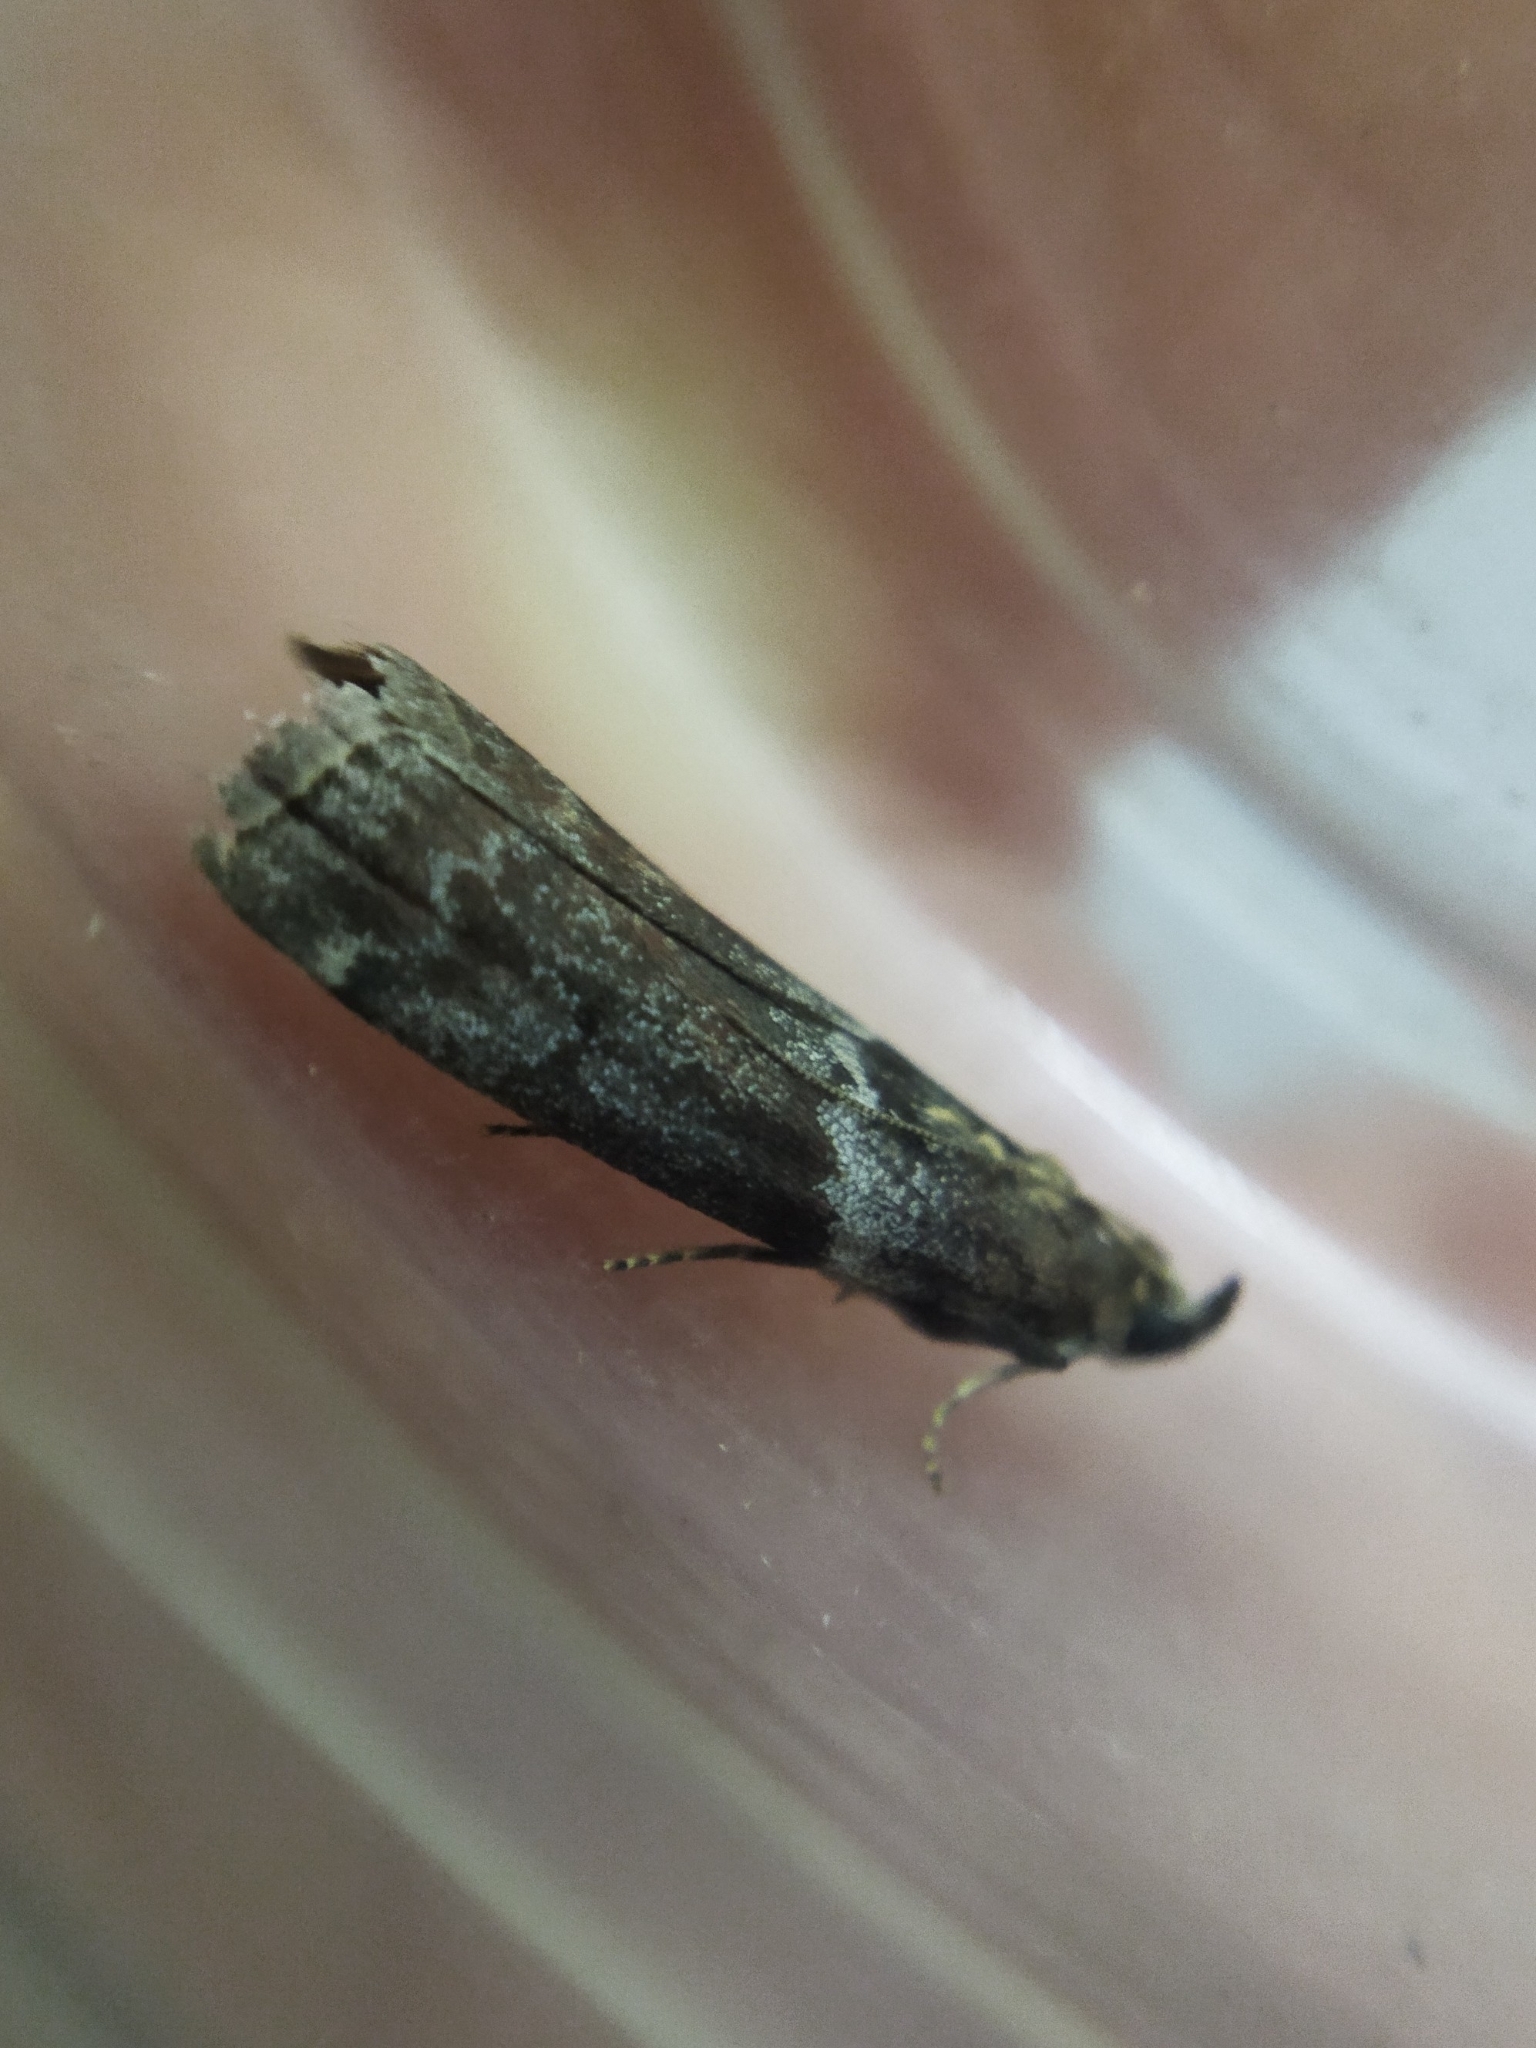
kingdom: Animalia
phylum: Arthropoda
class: Insecta
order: Lepidoptera
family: Pyralidae
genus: Oncocera
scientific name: Oncocera Laodamia faecella
